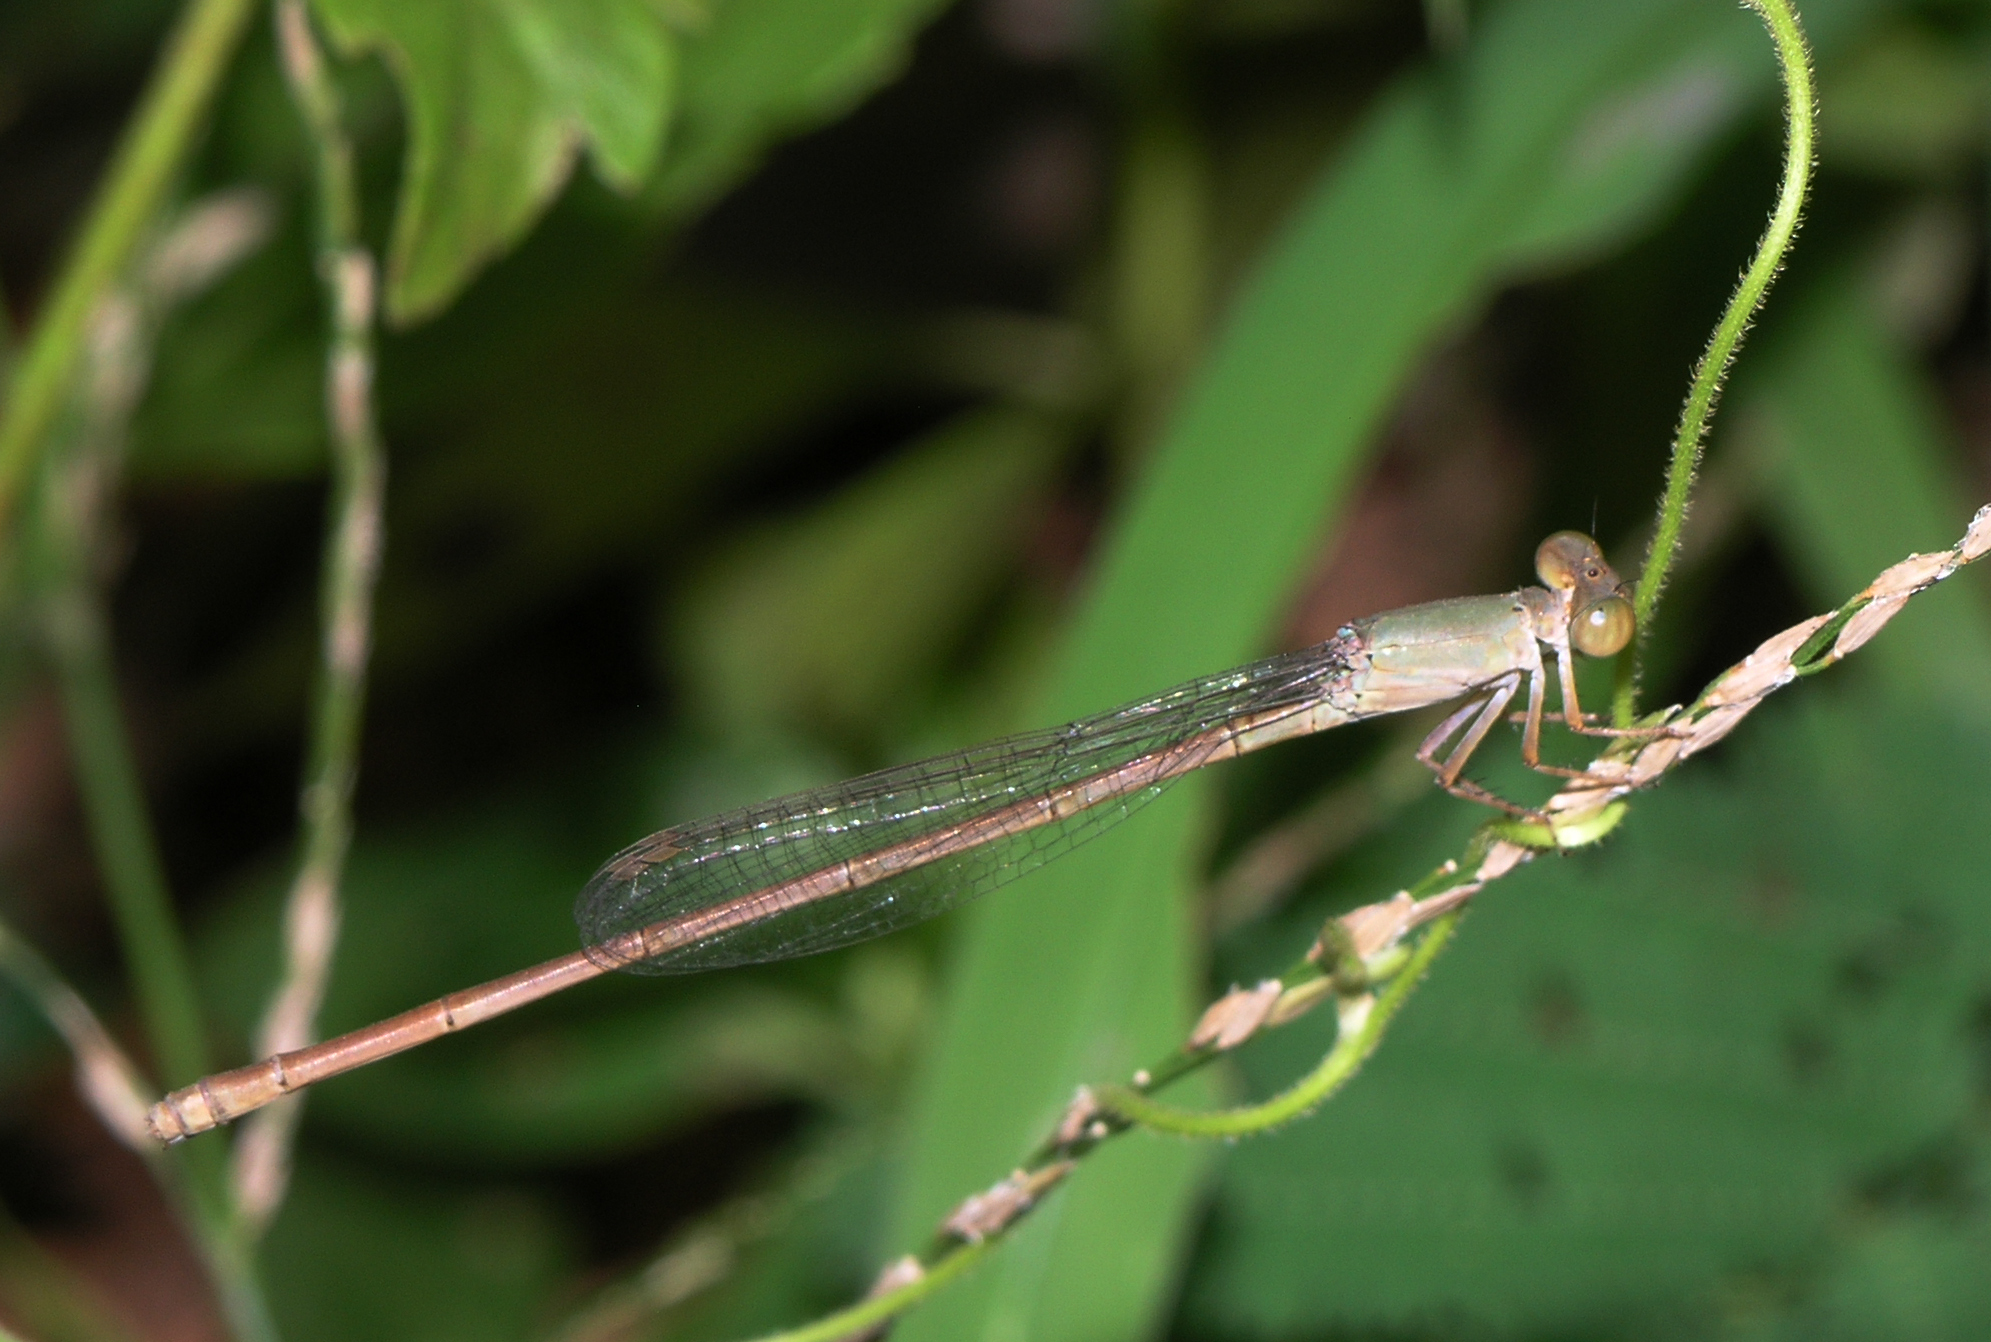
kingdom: Animalia
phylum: Arthropoda
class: Insecta
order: Odonata
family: Coenagrionidae
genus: Ceriagrion
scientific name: Ceriagrion olivaceum
